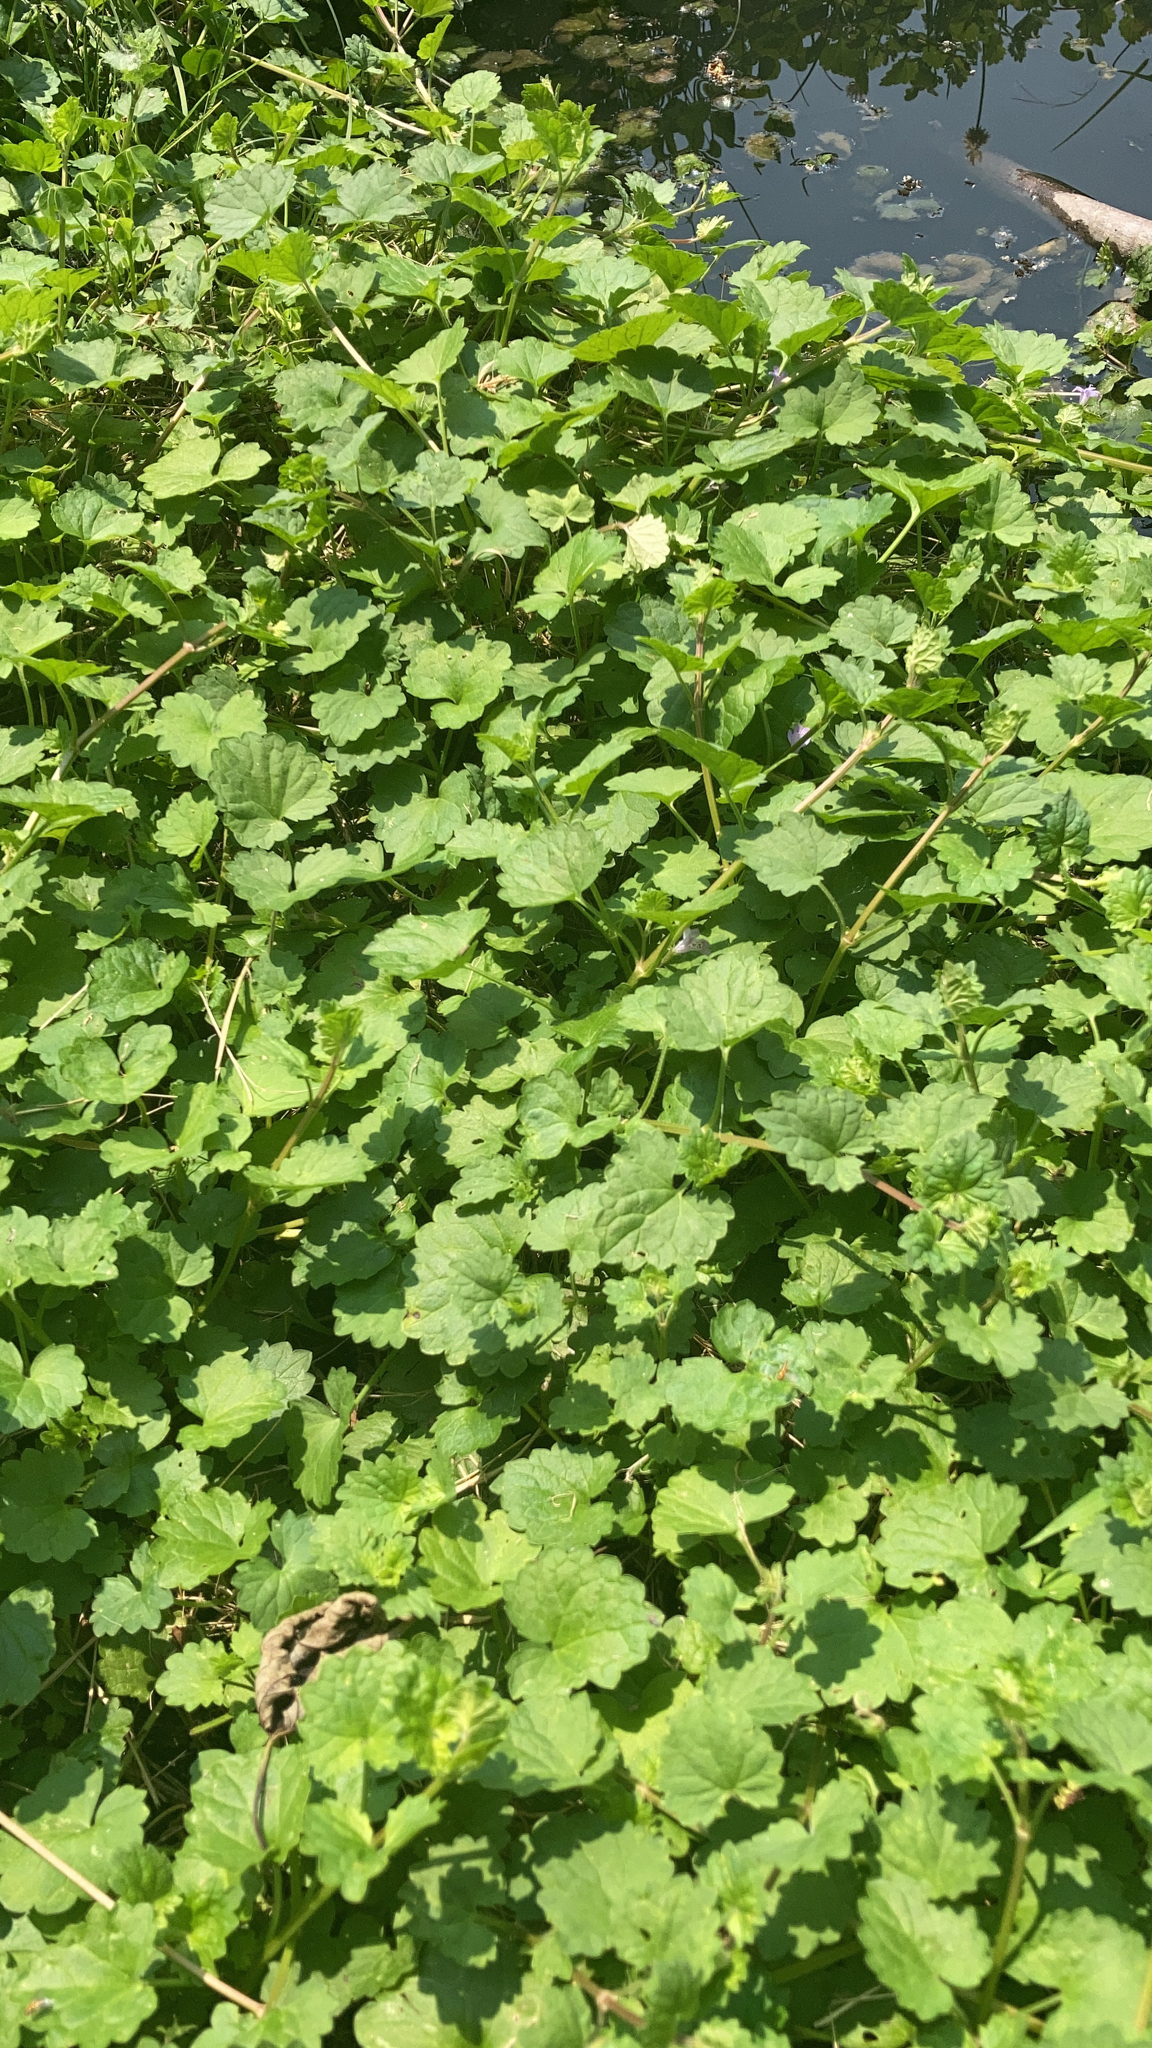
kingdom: Plantae
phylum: Tracheophyta
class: Magnoliopsida
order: Lamiales
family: Lamiaceae
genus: Glechoma
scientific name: Glechoma hederacea
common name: Ground ivy
